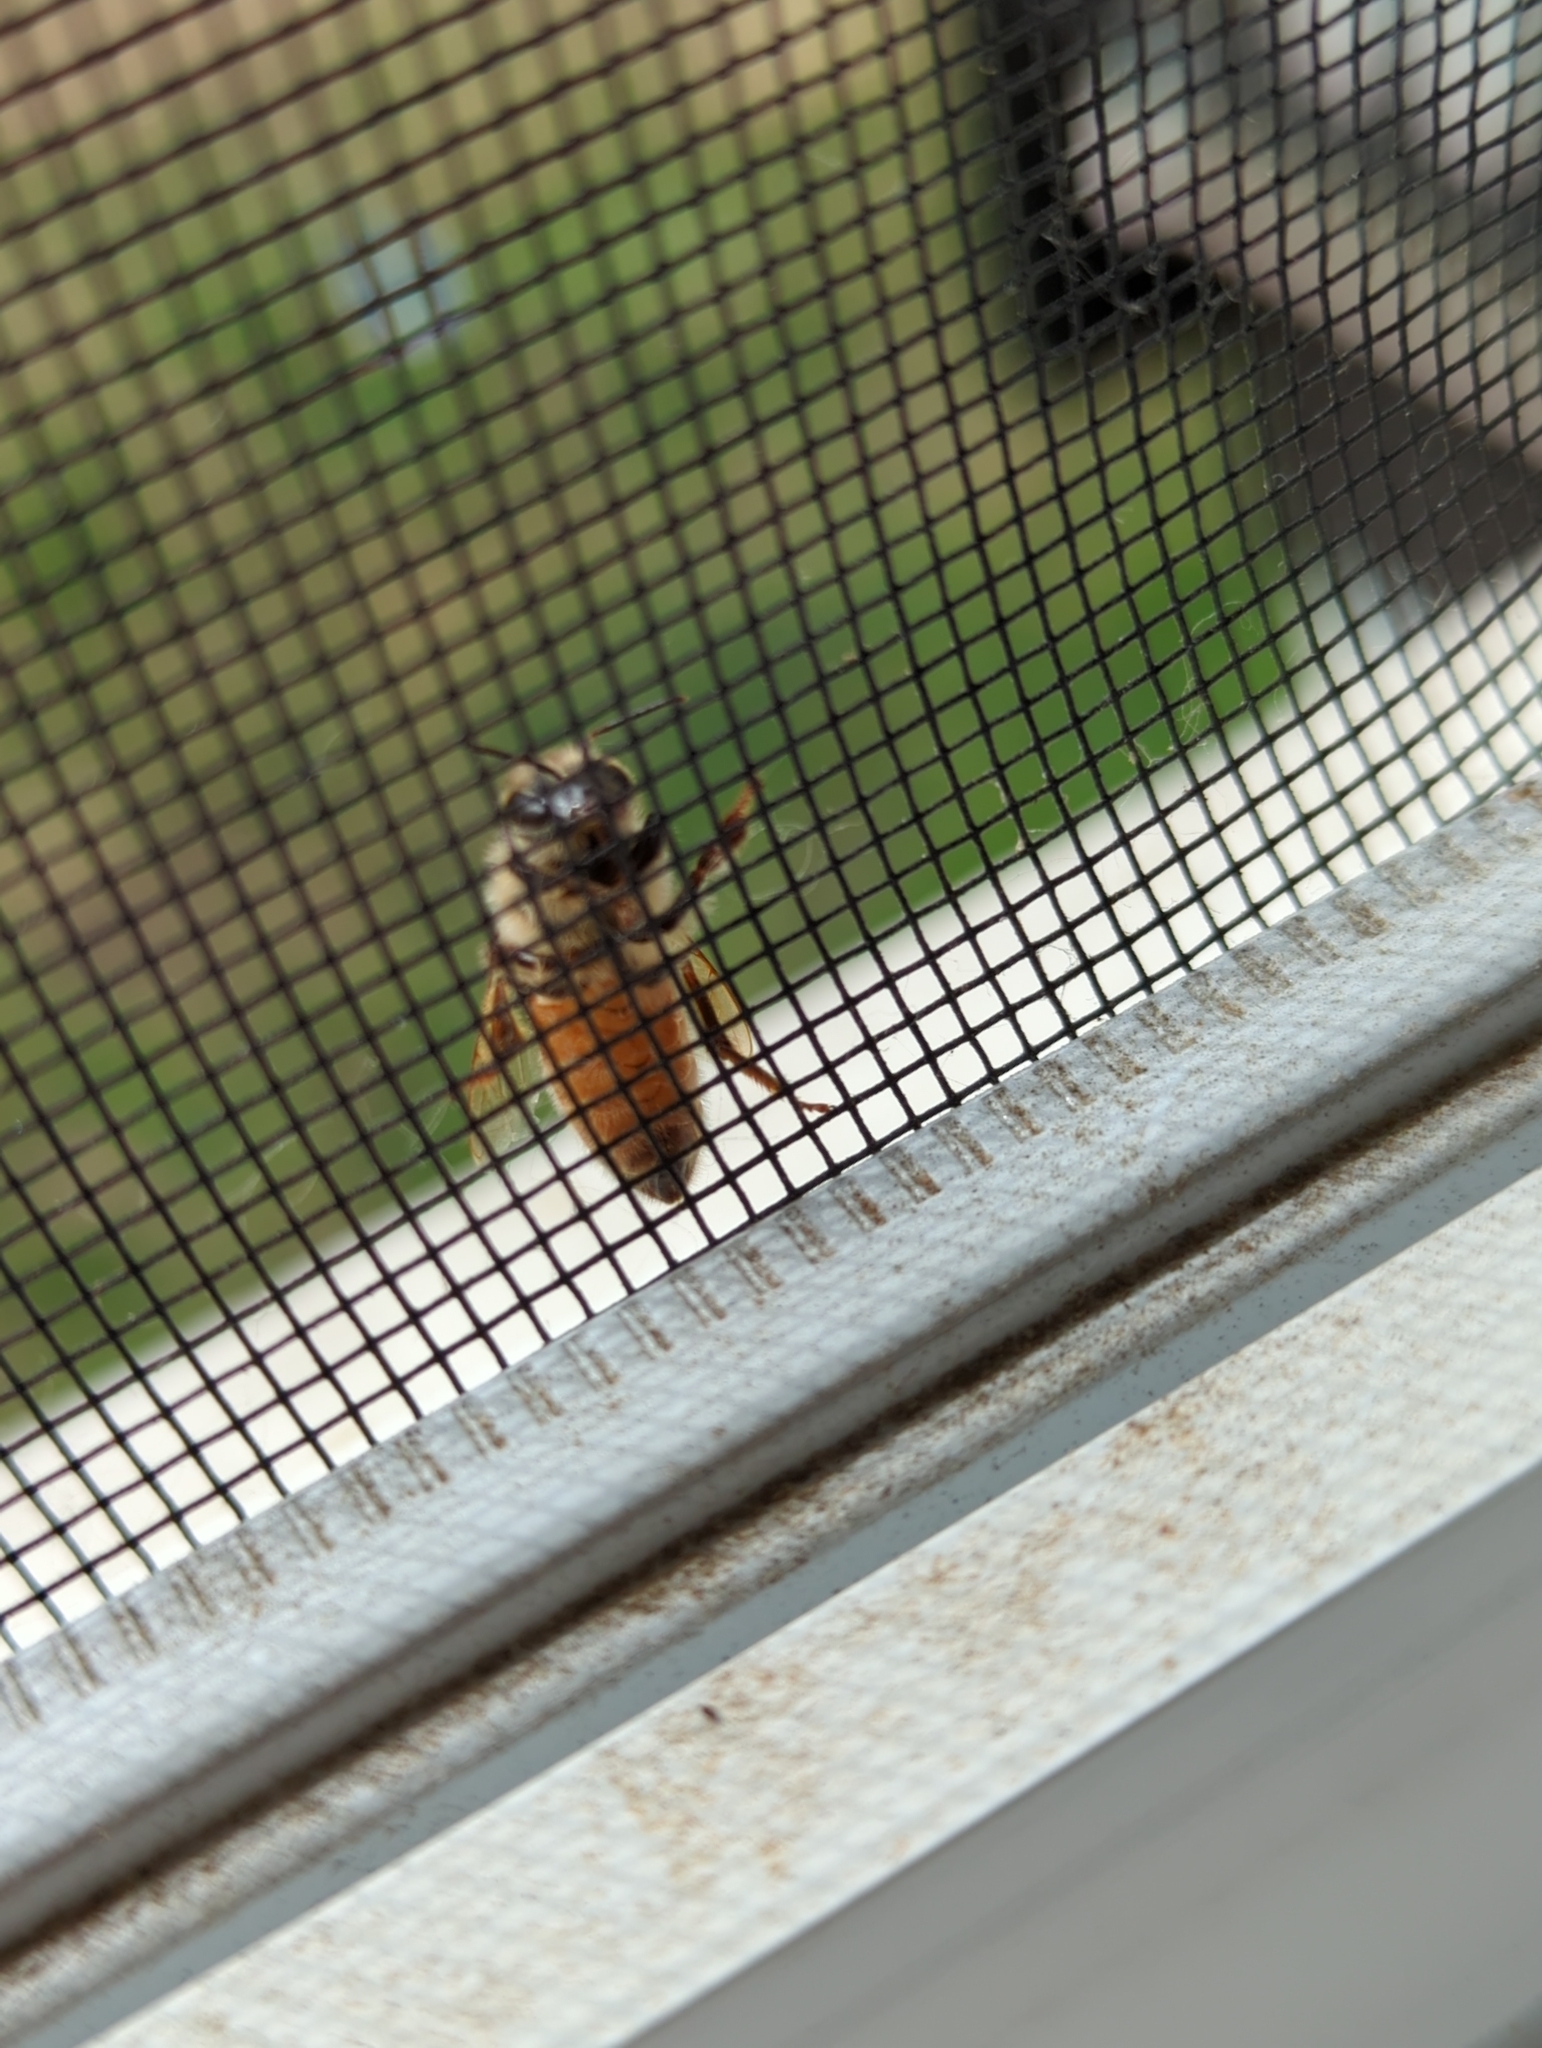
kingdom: Animalia
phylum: Arthropoda
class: Insecta
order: Hymenoptera
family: Apidae
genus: Apis
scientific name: Apis mellifera
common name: Honey bee
